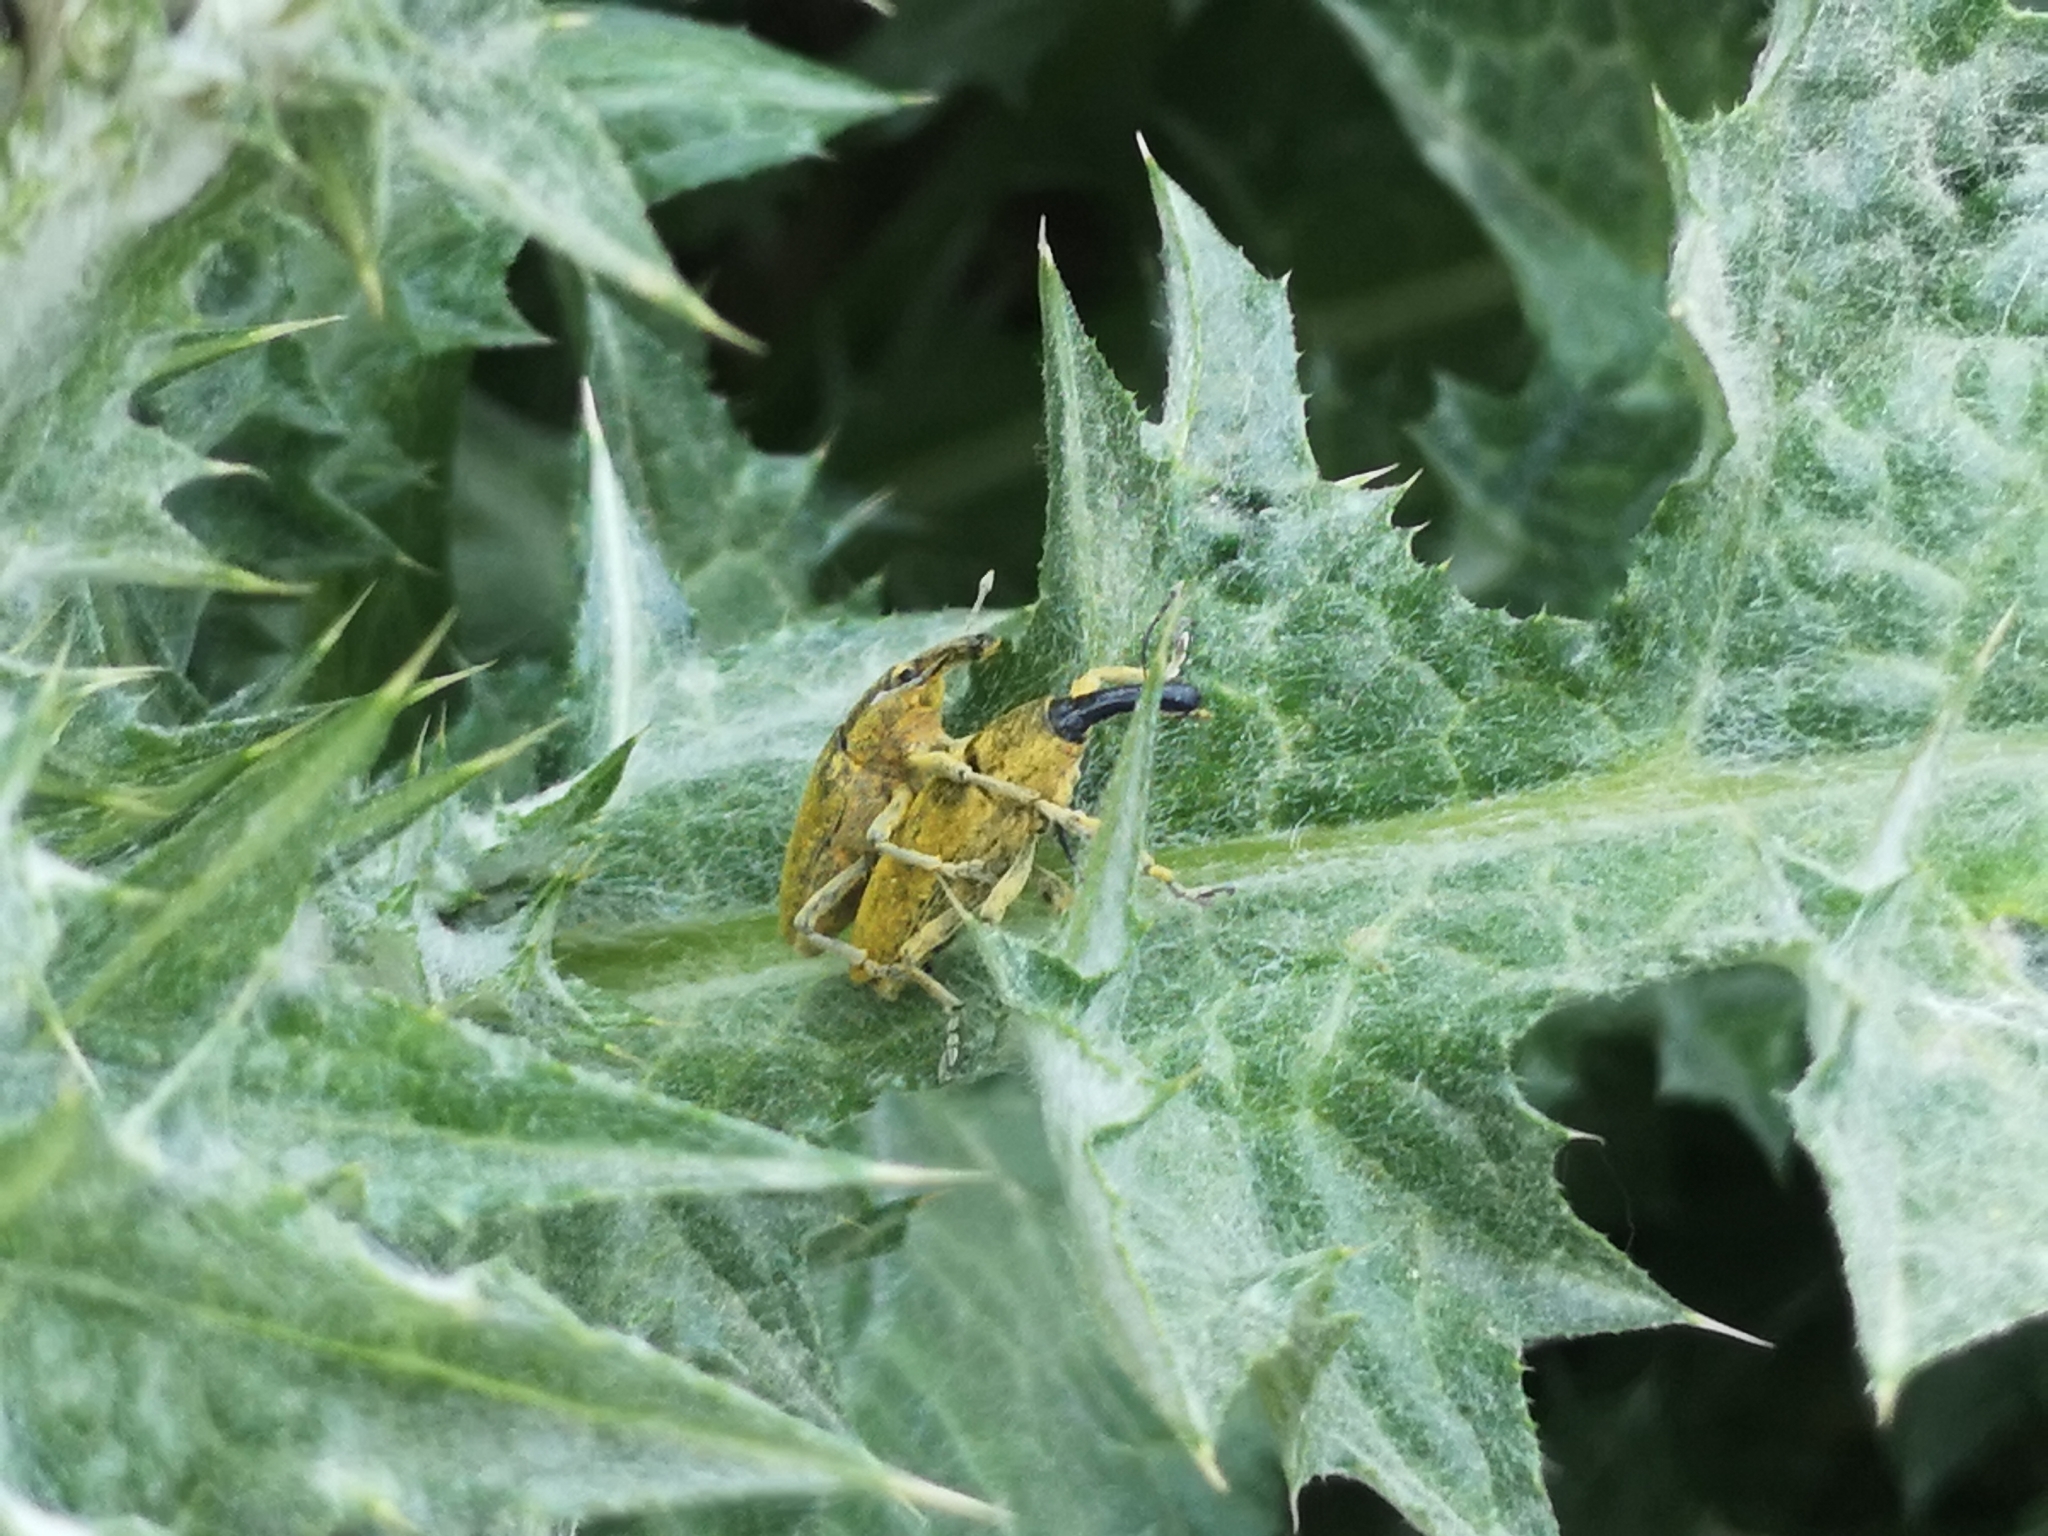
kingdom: Animalia
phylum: Arthropoda
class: Insecta
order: Coleoptera
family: Curculionidae
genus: Lixus
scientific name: Lixus pulverulentus
